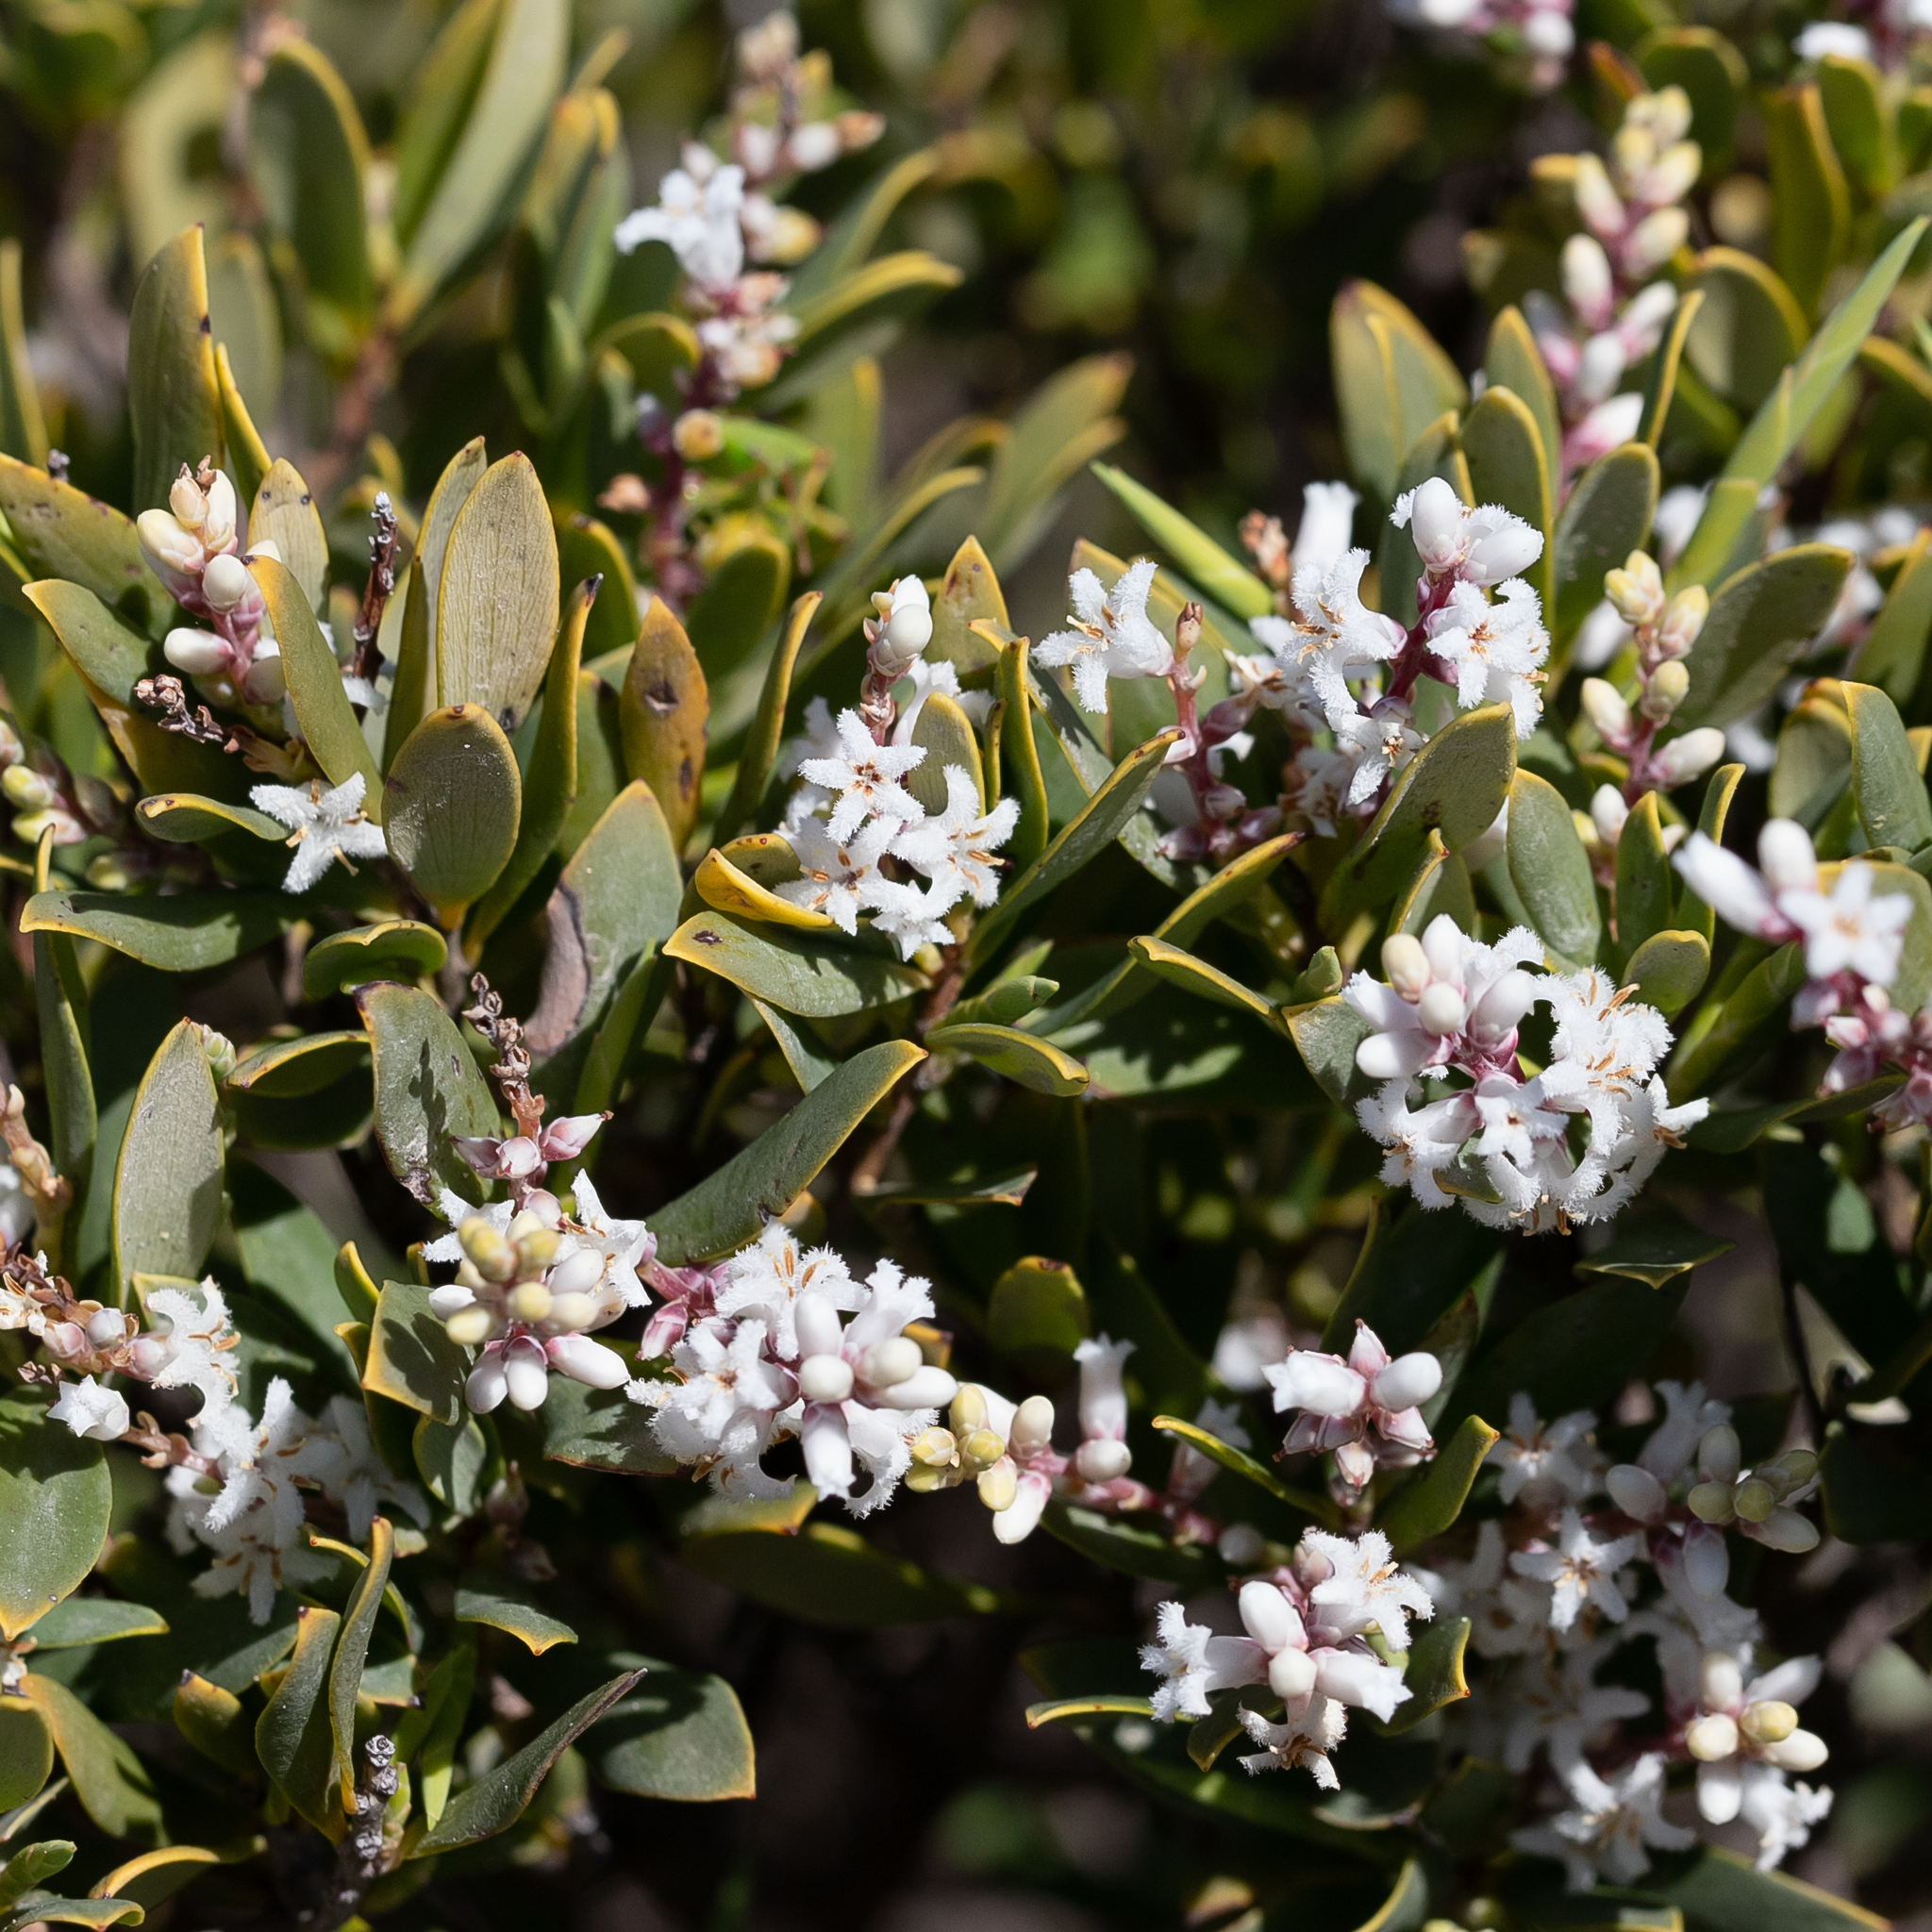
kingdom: Plantae
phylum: Tracheophyta
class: Magnoliopsida
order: Ericales
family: Ericaceae
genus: Leptecophylla
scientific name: Leptecophylla parvifolia
